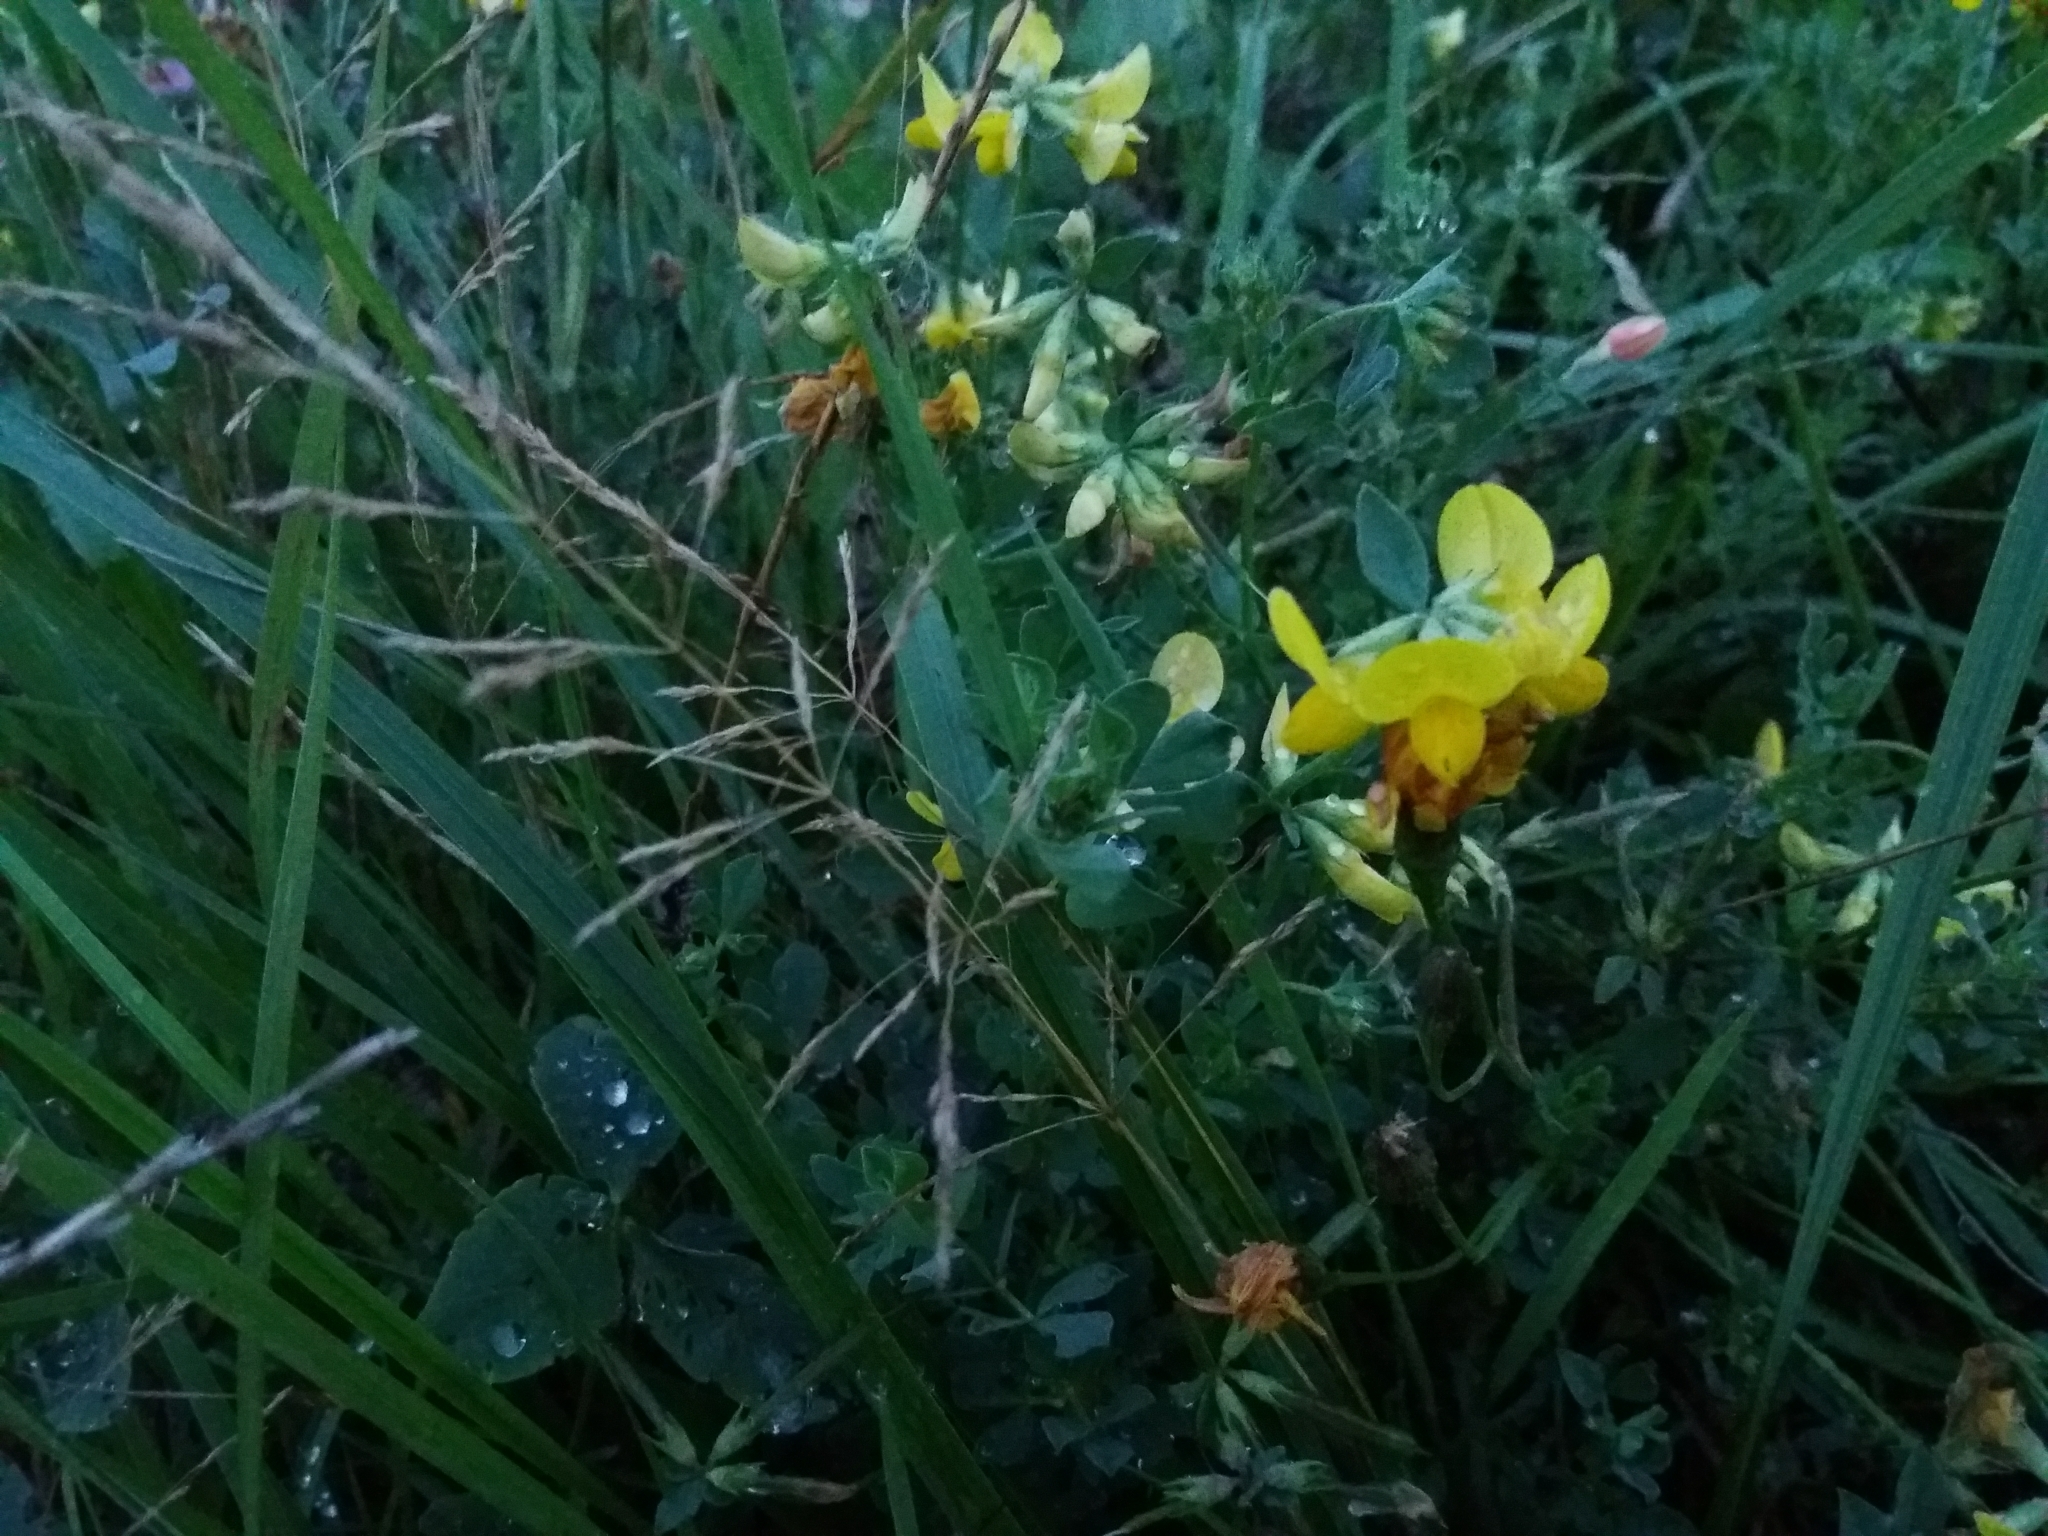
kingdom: Plantae
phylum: Tracheophyta
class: Magnoliopsida
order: Fabales
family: Fabaceae
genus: Lotus
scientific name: Lotus corniculatus
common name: Common bird's-foot-trefoil
